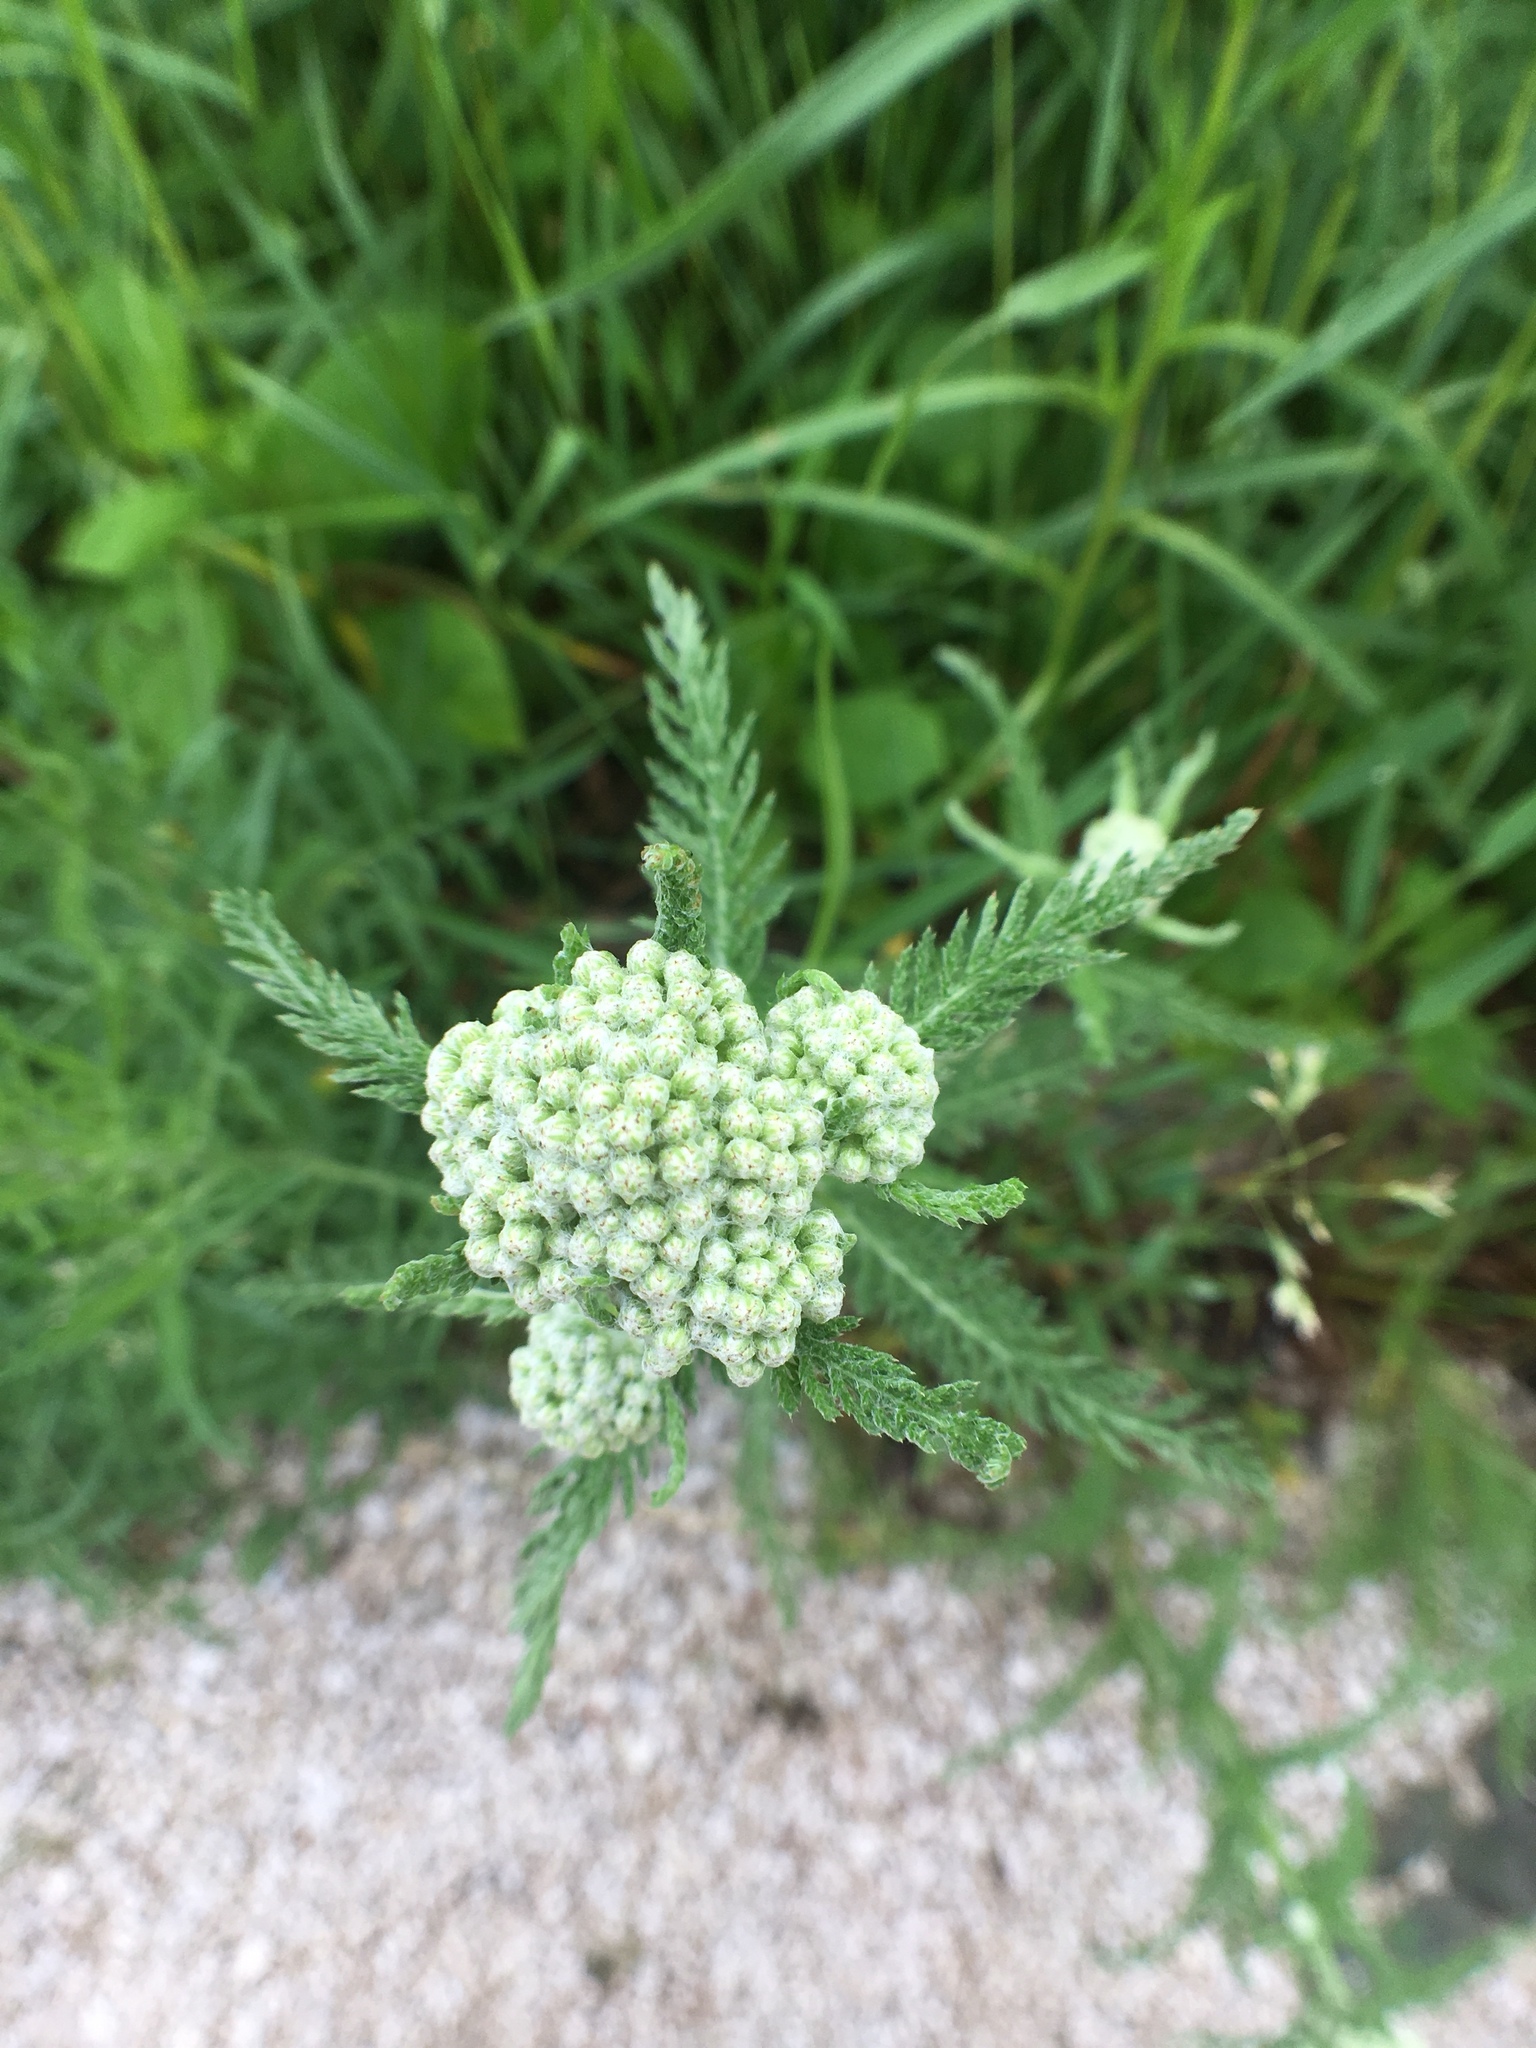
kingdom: Plantae
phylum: Tracheophyta
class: Magnoliopsida
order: Asterales
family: Asteraceae
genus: Achillea
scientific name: Achillea millefolium
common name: Yarrow
